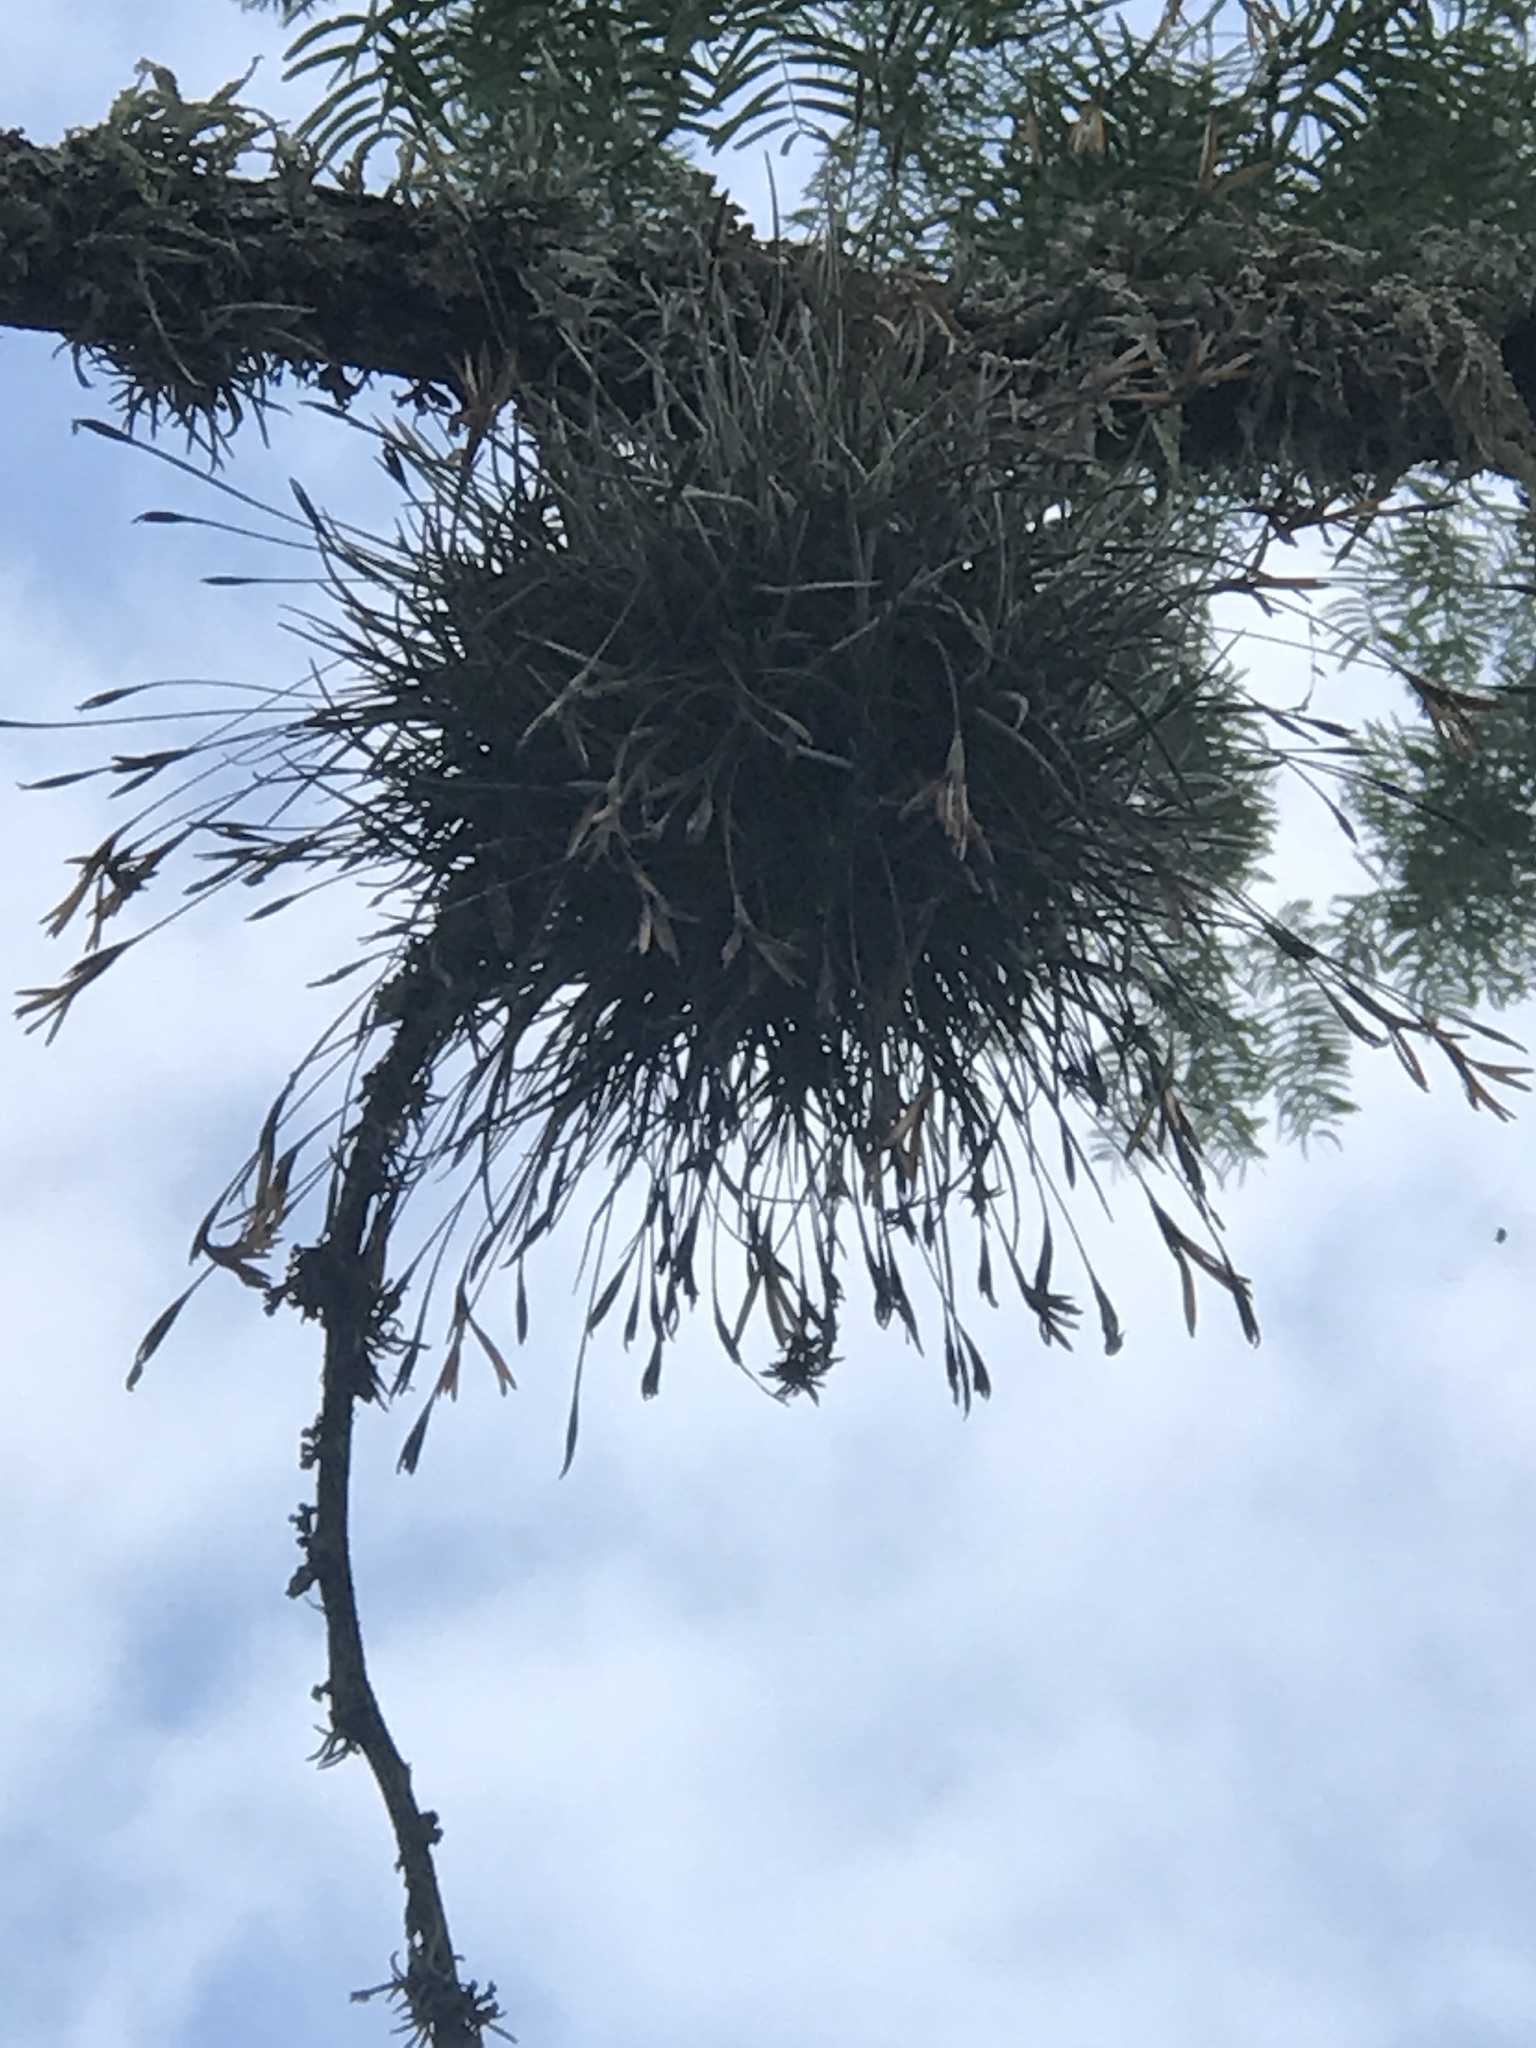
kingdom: Plantae
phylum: Tracheophyta
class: Liliopsida
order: Poales
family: Bromeliaceae
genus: Tillandsia
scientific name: Tillandsia recurvata
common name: Small ballmoss
